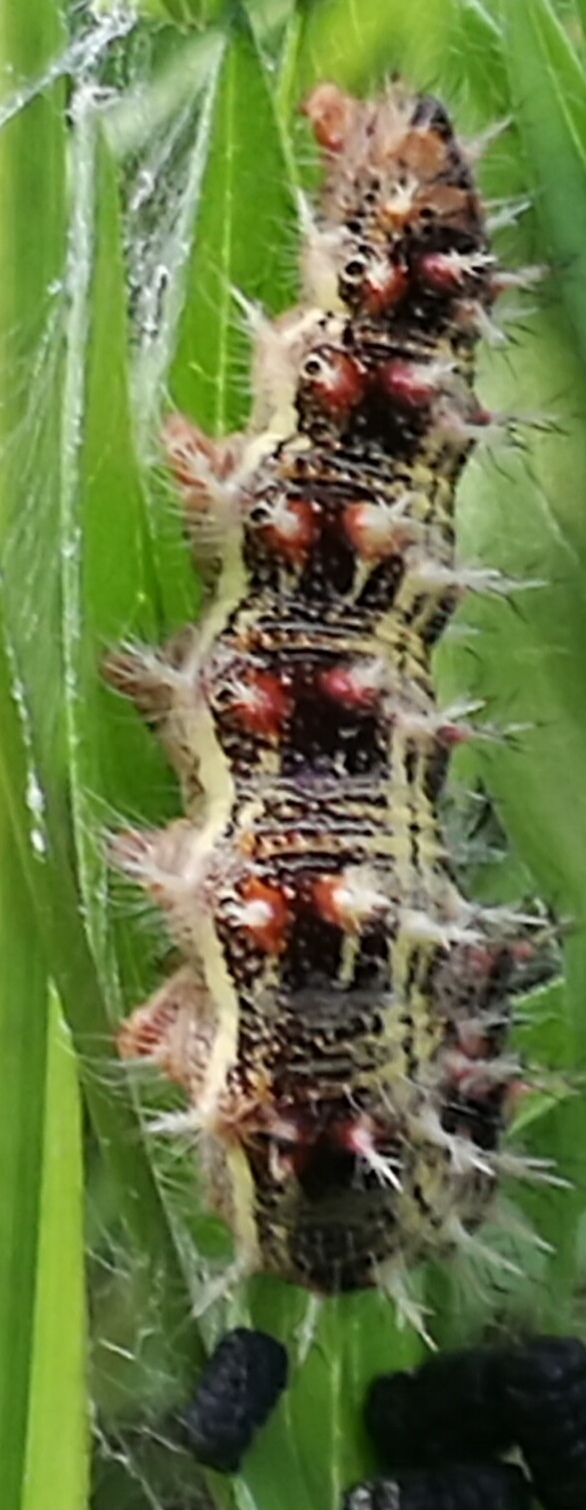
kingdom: Animalia
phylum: Arthropoda
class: Insecta
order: Lepidoptera
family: Nymphalidae
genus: Vanessa
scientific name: Vanessa cardui
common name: Painted lady
